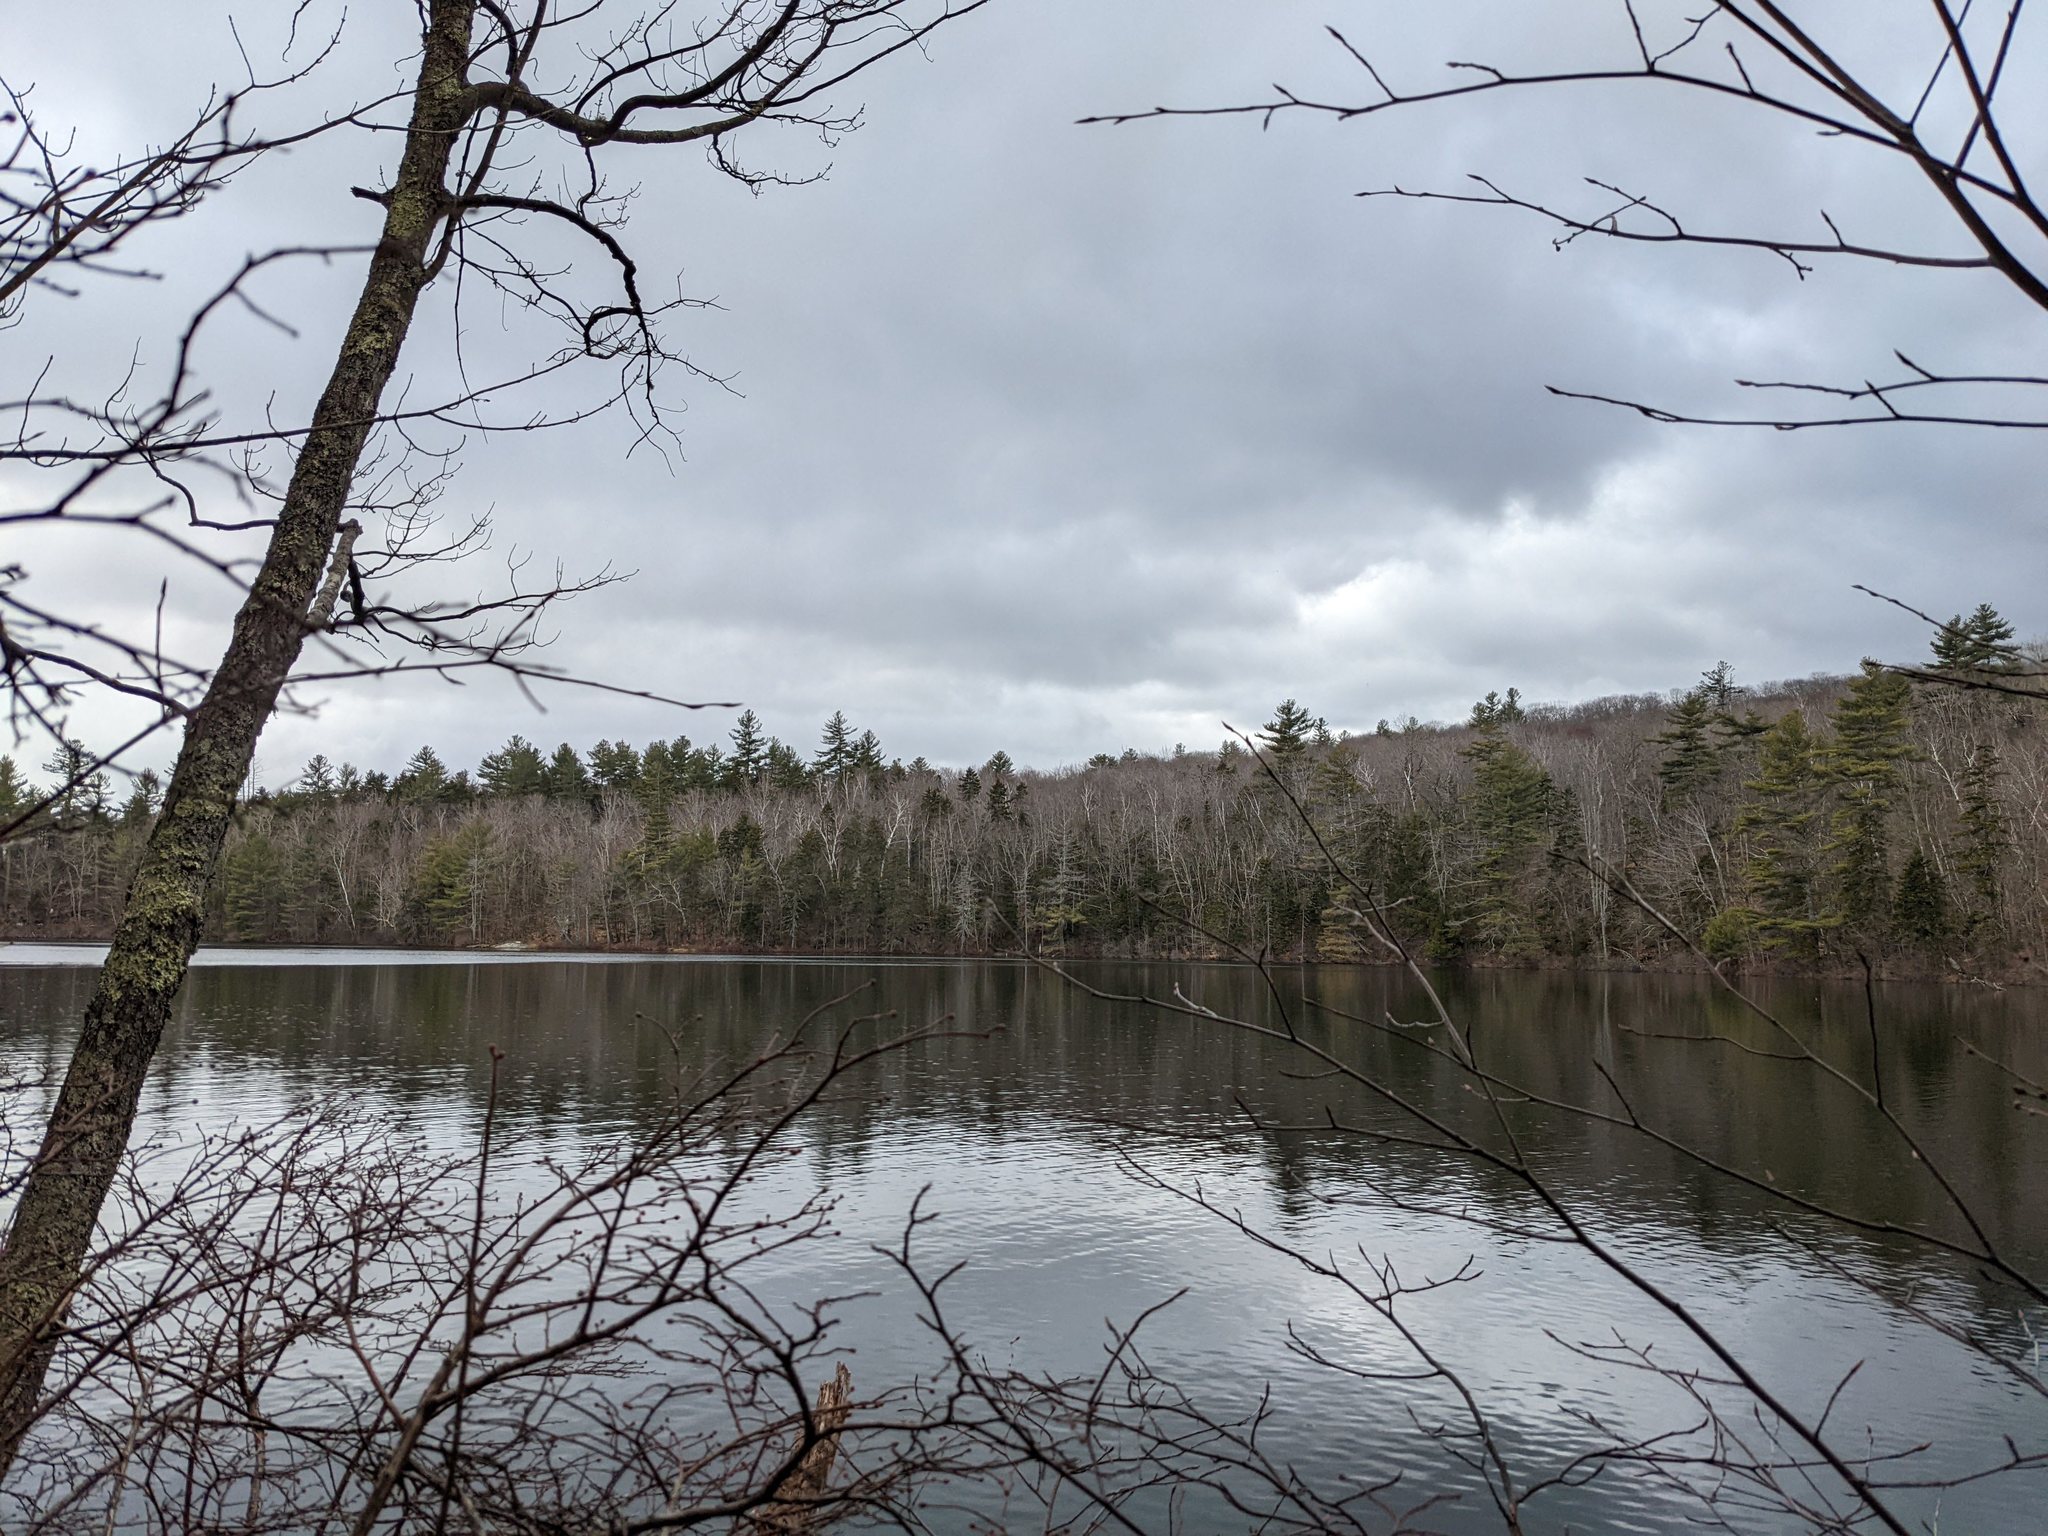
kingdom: Plantae
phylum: Tracheophyta
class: Pinopsida
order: Pinales
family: Pinaceae
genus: Pinus
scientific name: Pinus strobus
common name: Weymouth pine
